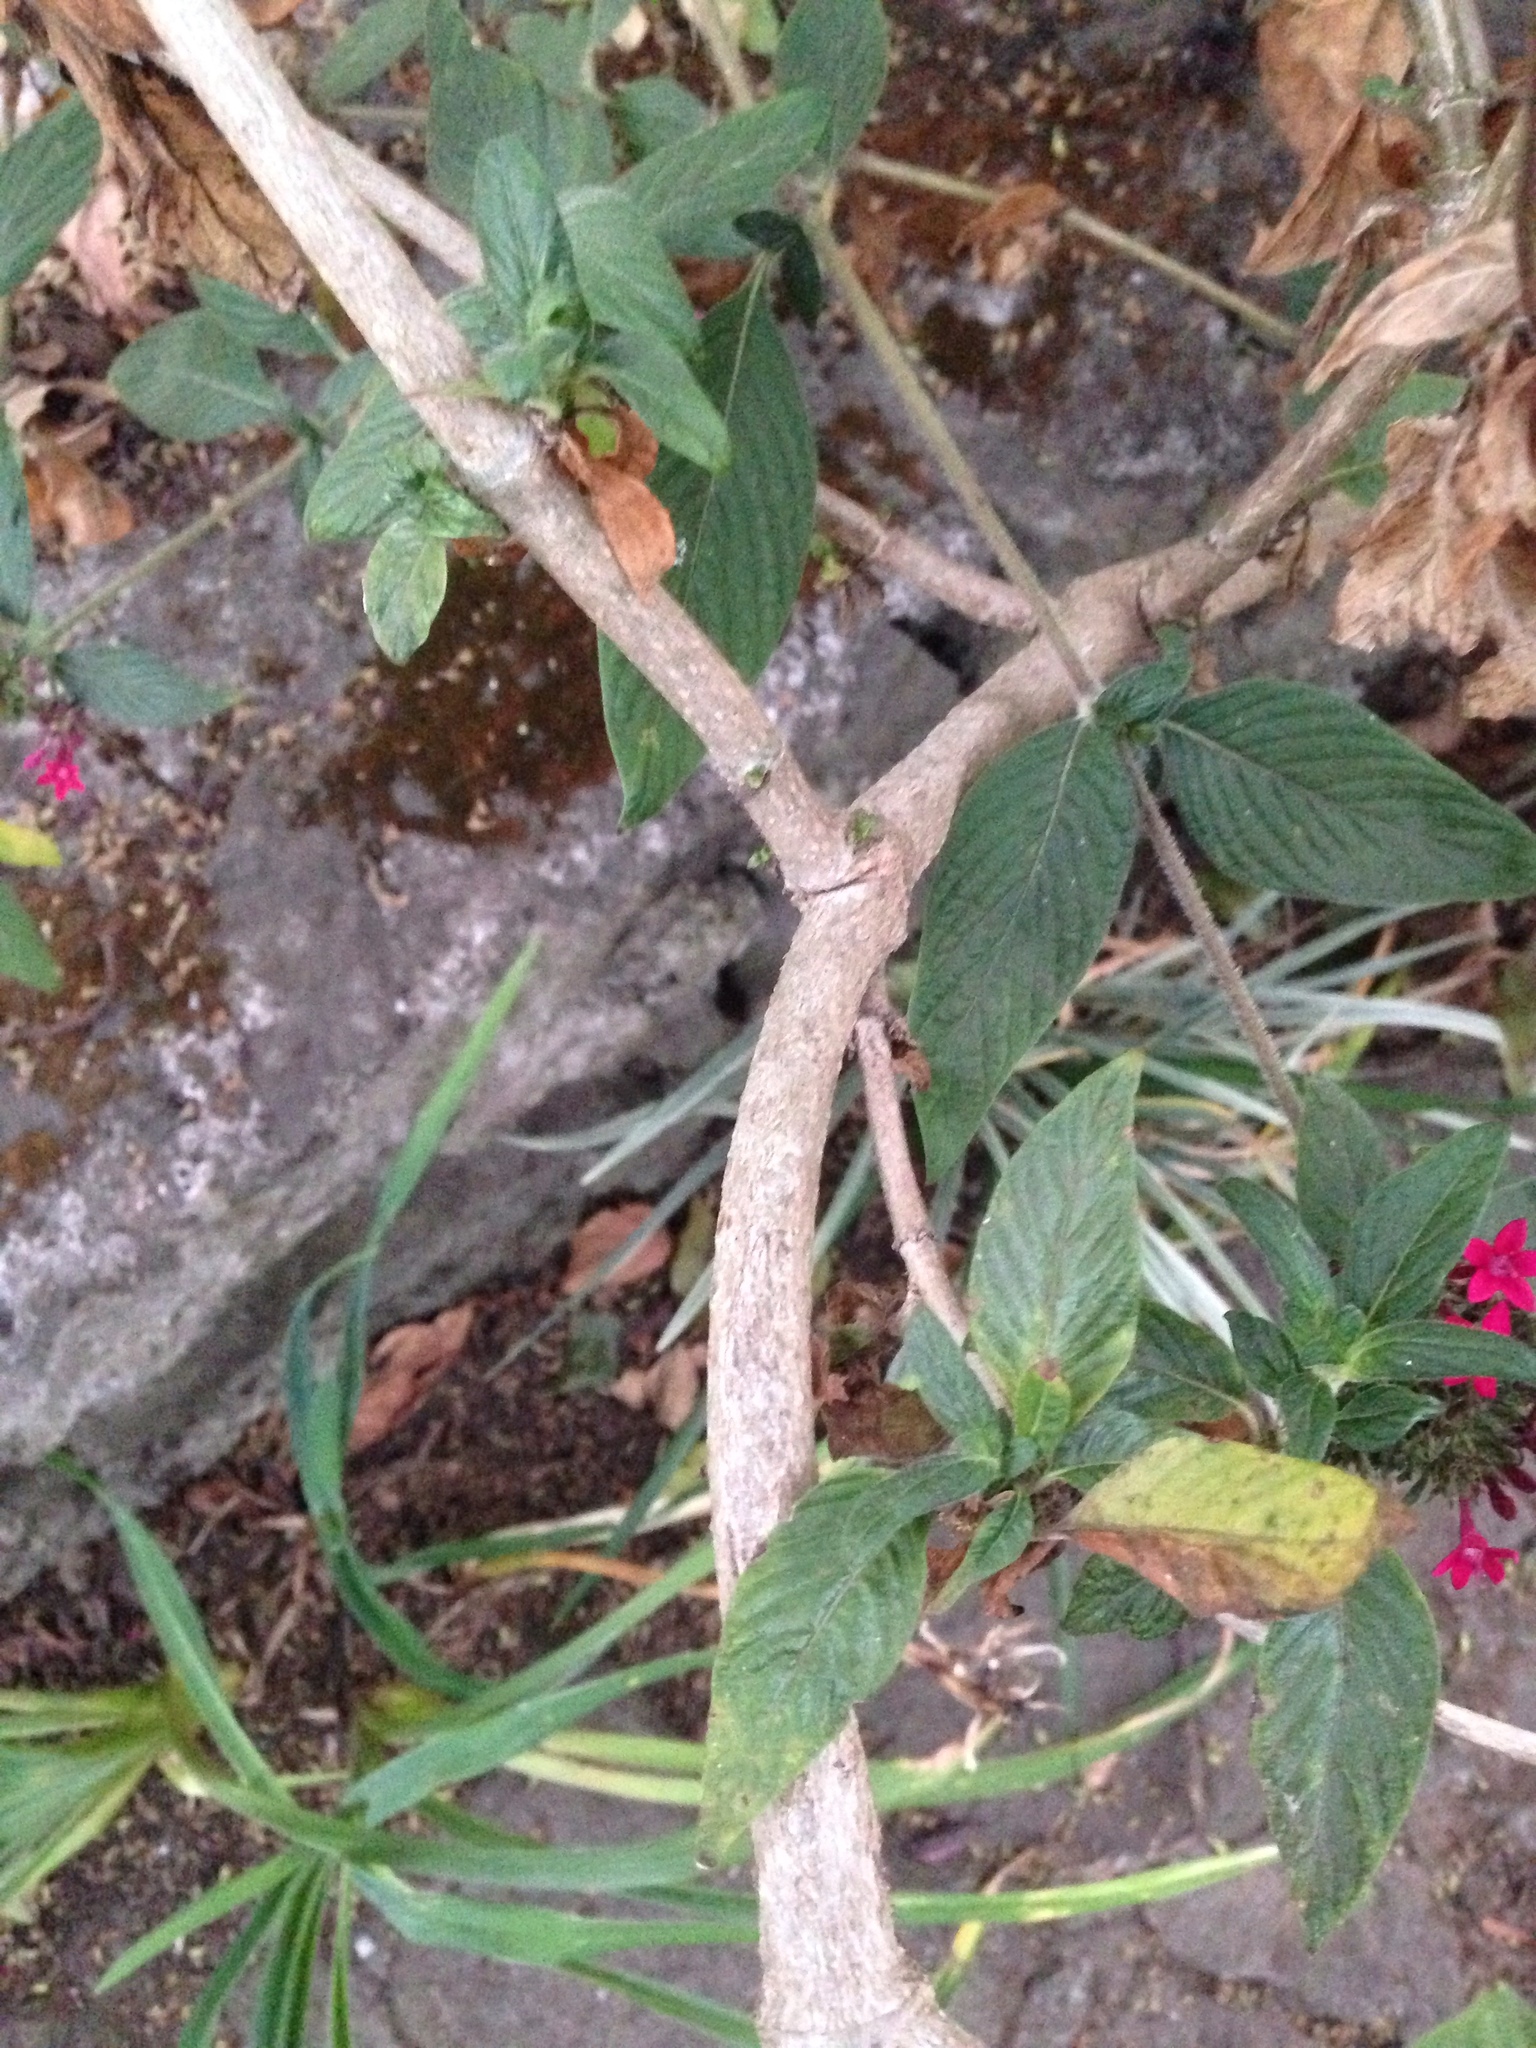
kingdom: Plantae
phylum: Tracheophyta
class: Magnoliopsida
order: Gentianales
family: Rubiaceae
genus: Pentas
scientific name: Pentas lanceolata
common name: Egyptian starcluster
